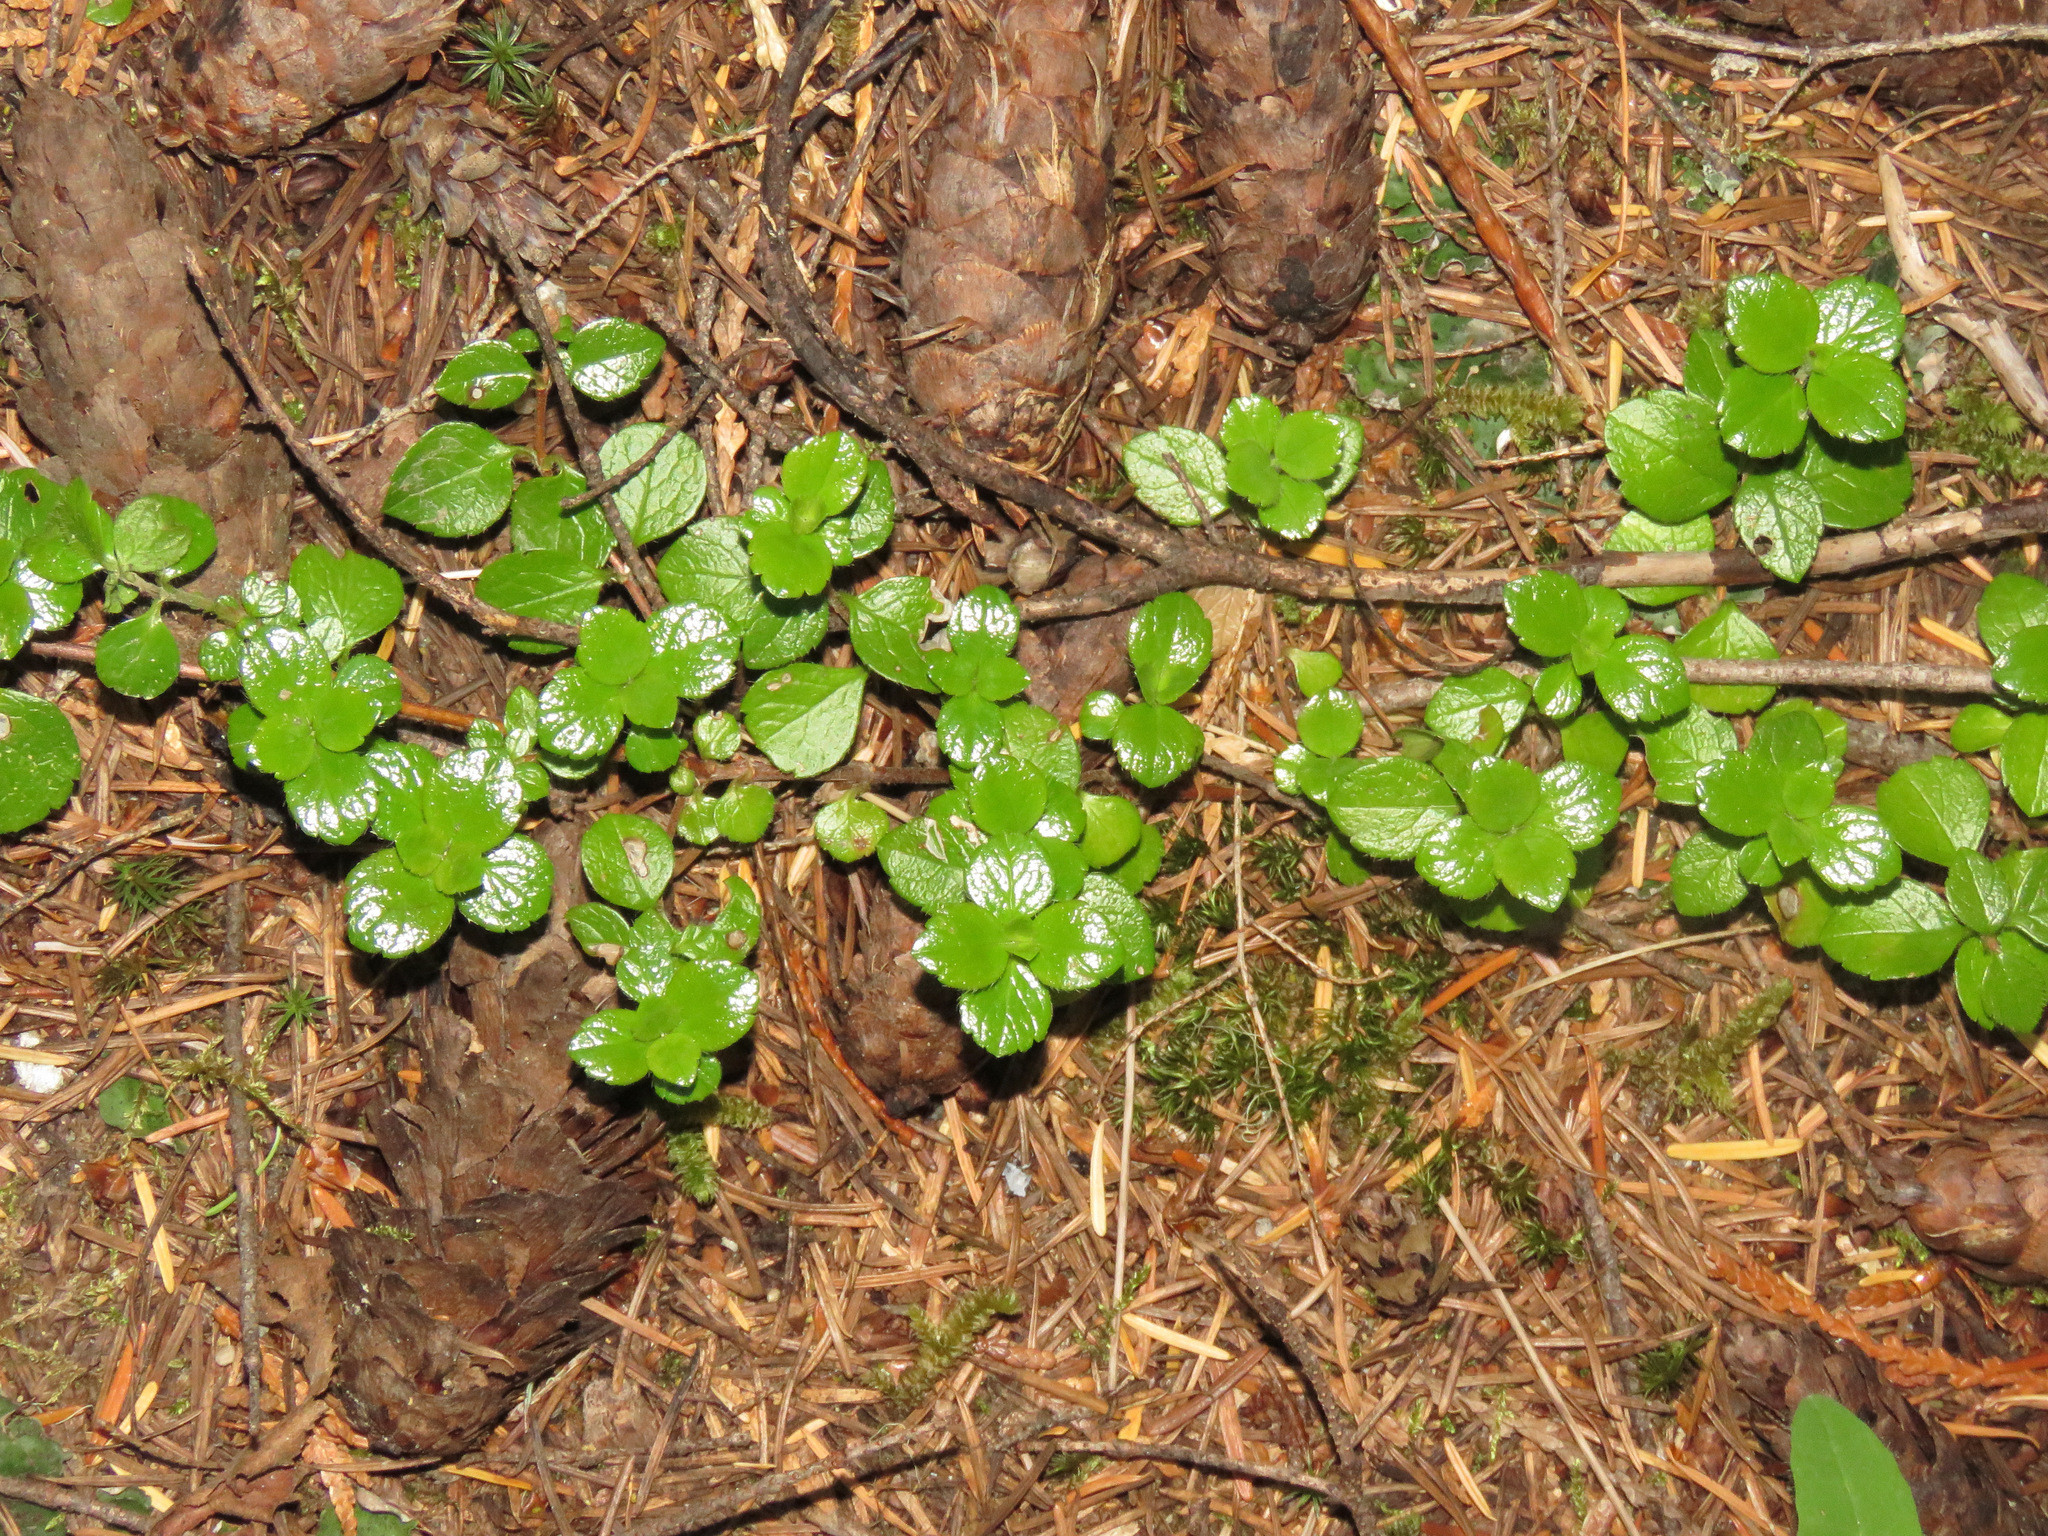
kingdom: Plantae
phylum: Tracheophyta
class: Magnoliopsida
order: Dipsacales
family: Caprifoliaceae
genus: Linnaea
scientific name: Linnaea borealis
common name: Twinflower
